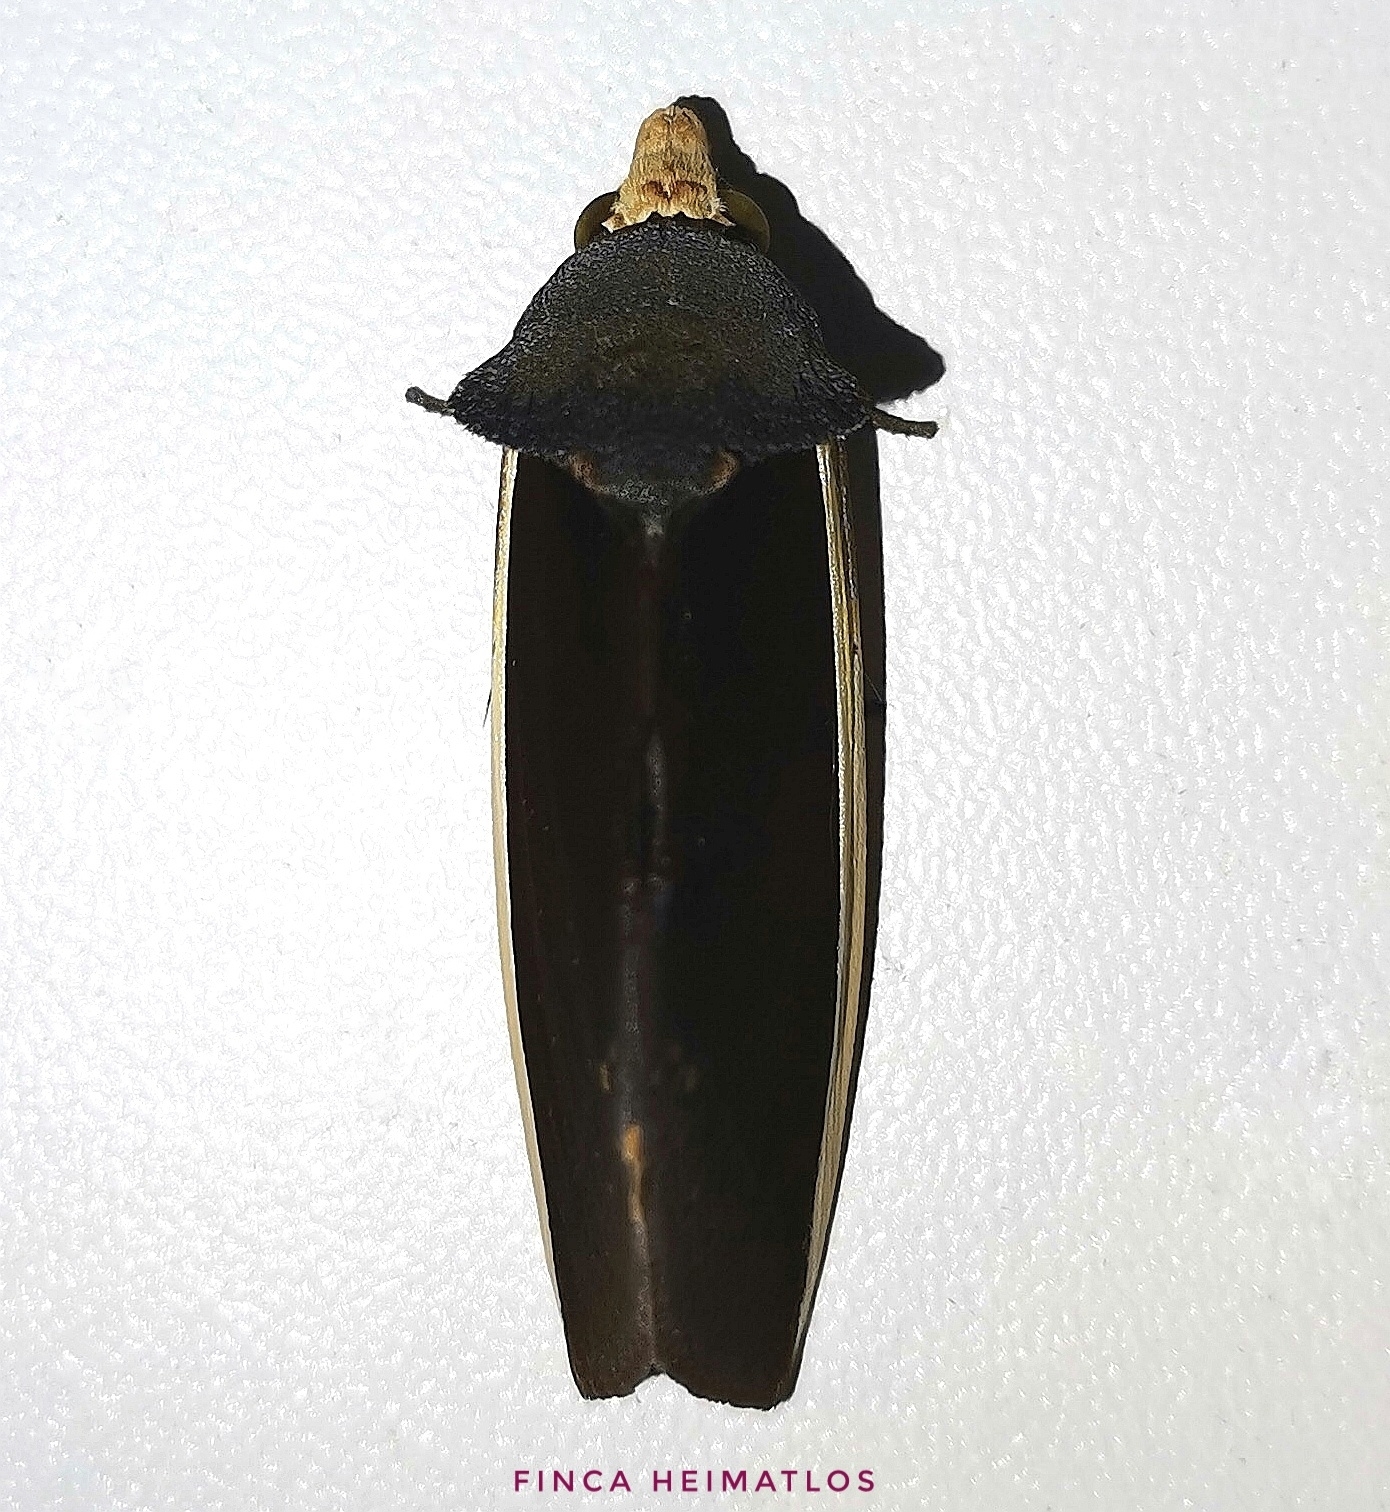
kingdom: Animalia
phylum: Arthropoda
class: Insecta
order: Lepidoptera
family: Erebidae
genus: Gonodonta
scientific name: Gonodonta pyrgo
